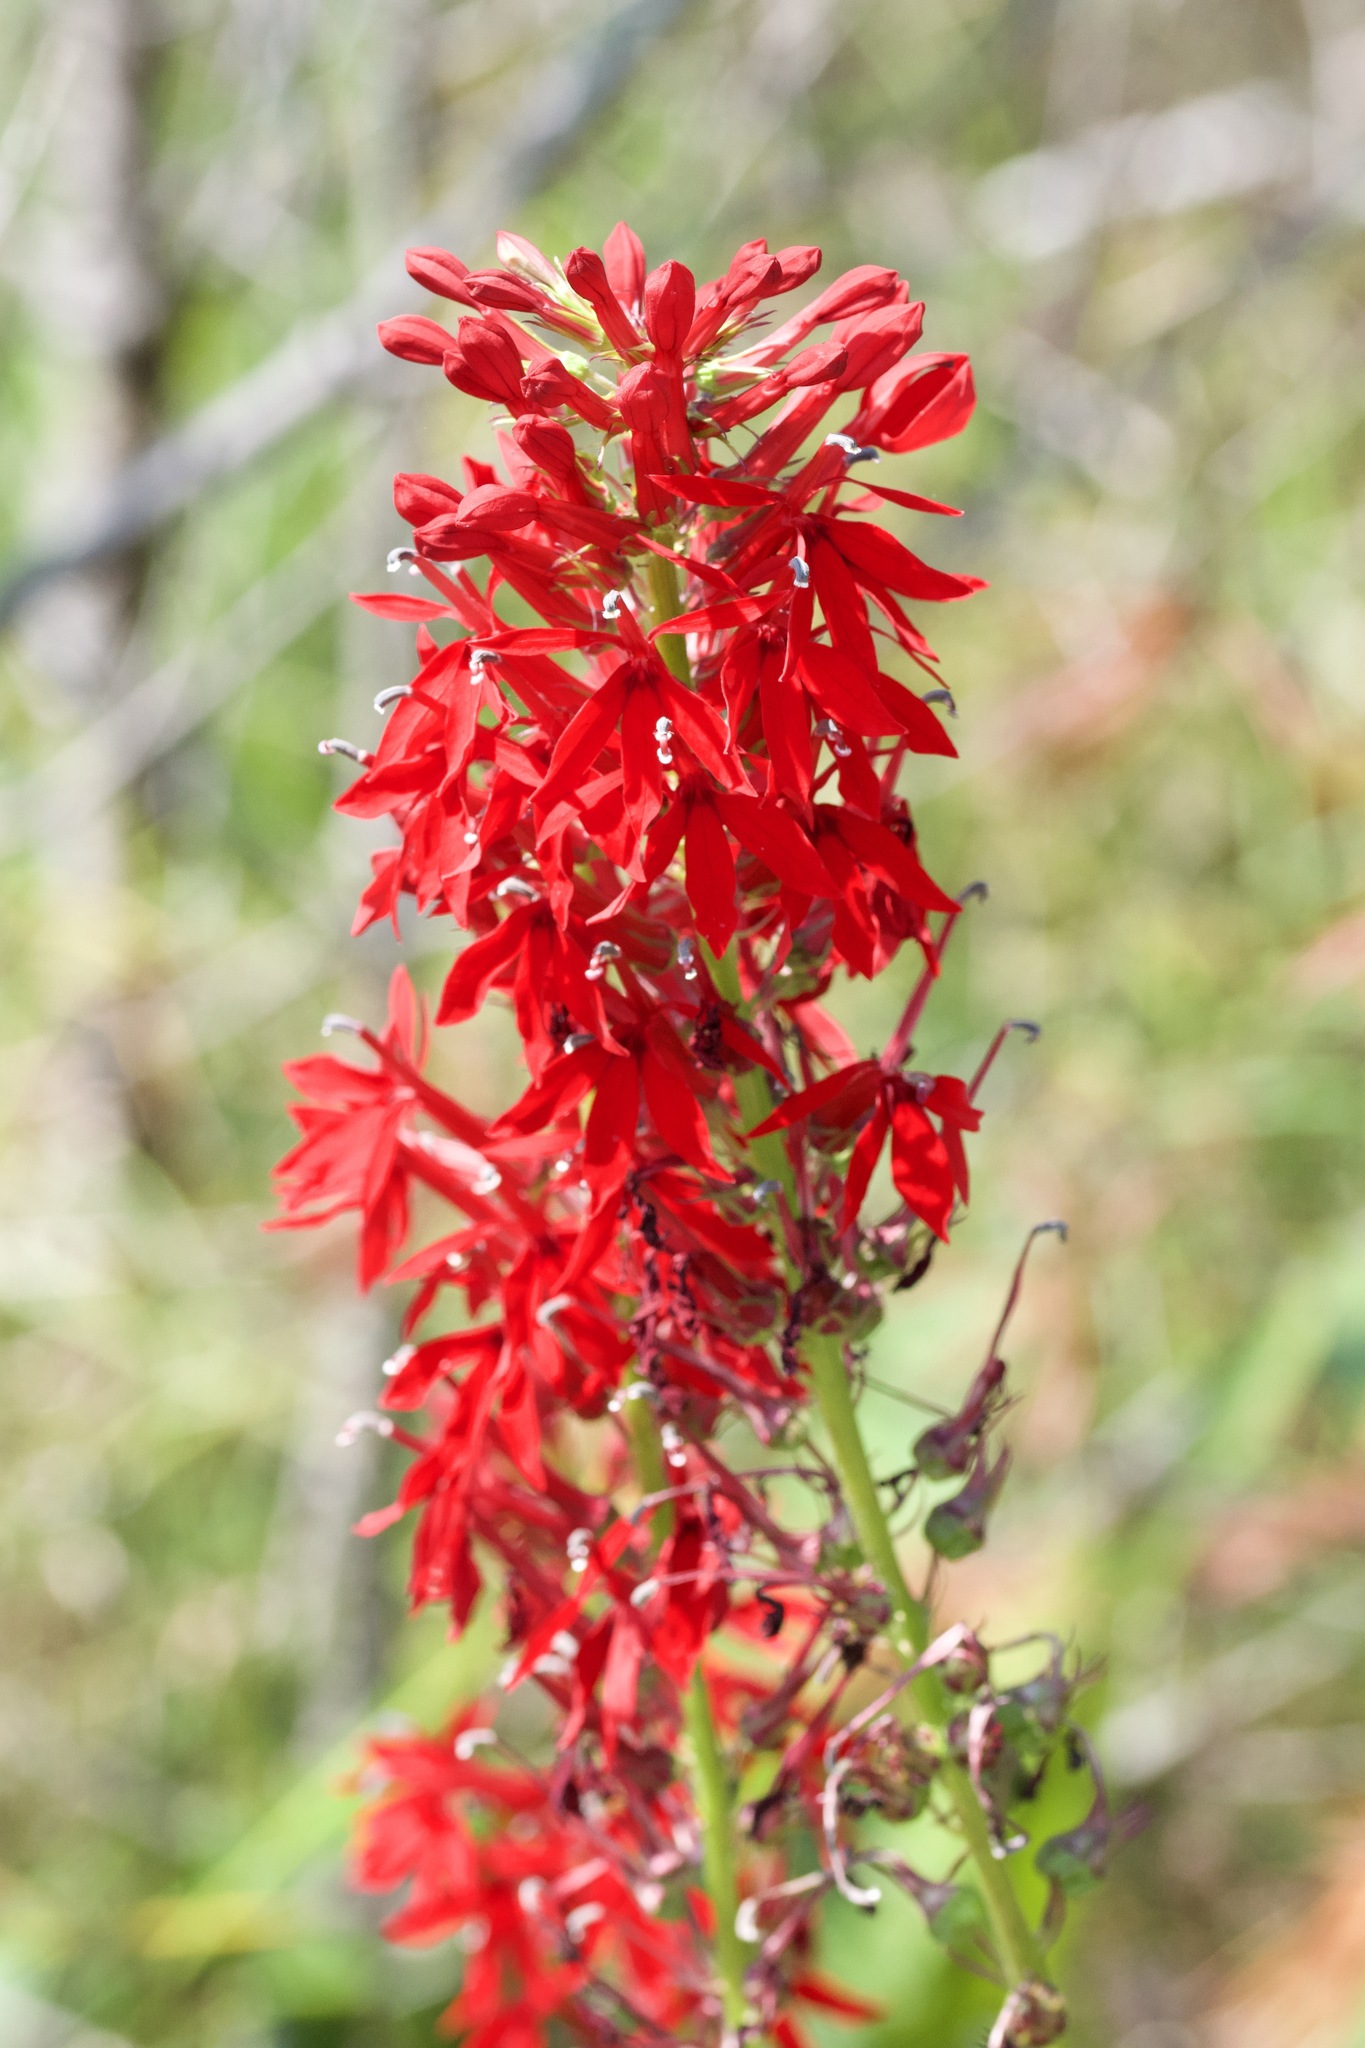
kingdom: Plantae
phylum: Tracheophyta
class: Magnoliopsida
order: Asterales
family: Campanulaceae
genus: Lobelia
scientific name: Lobelia cardinalis
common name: Cardinal flower
